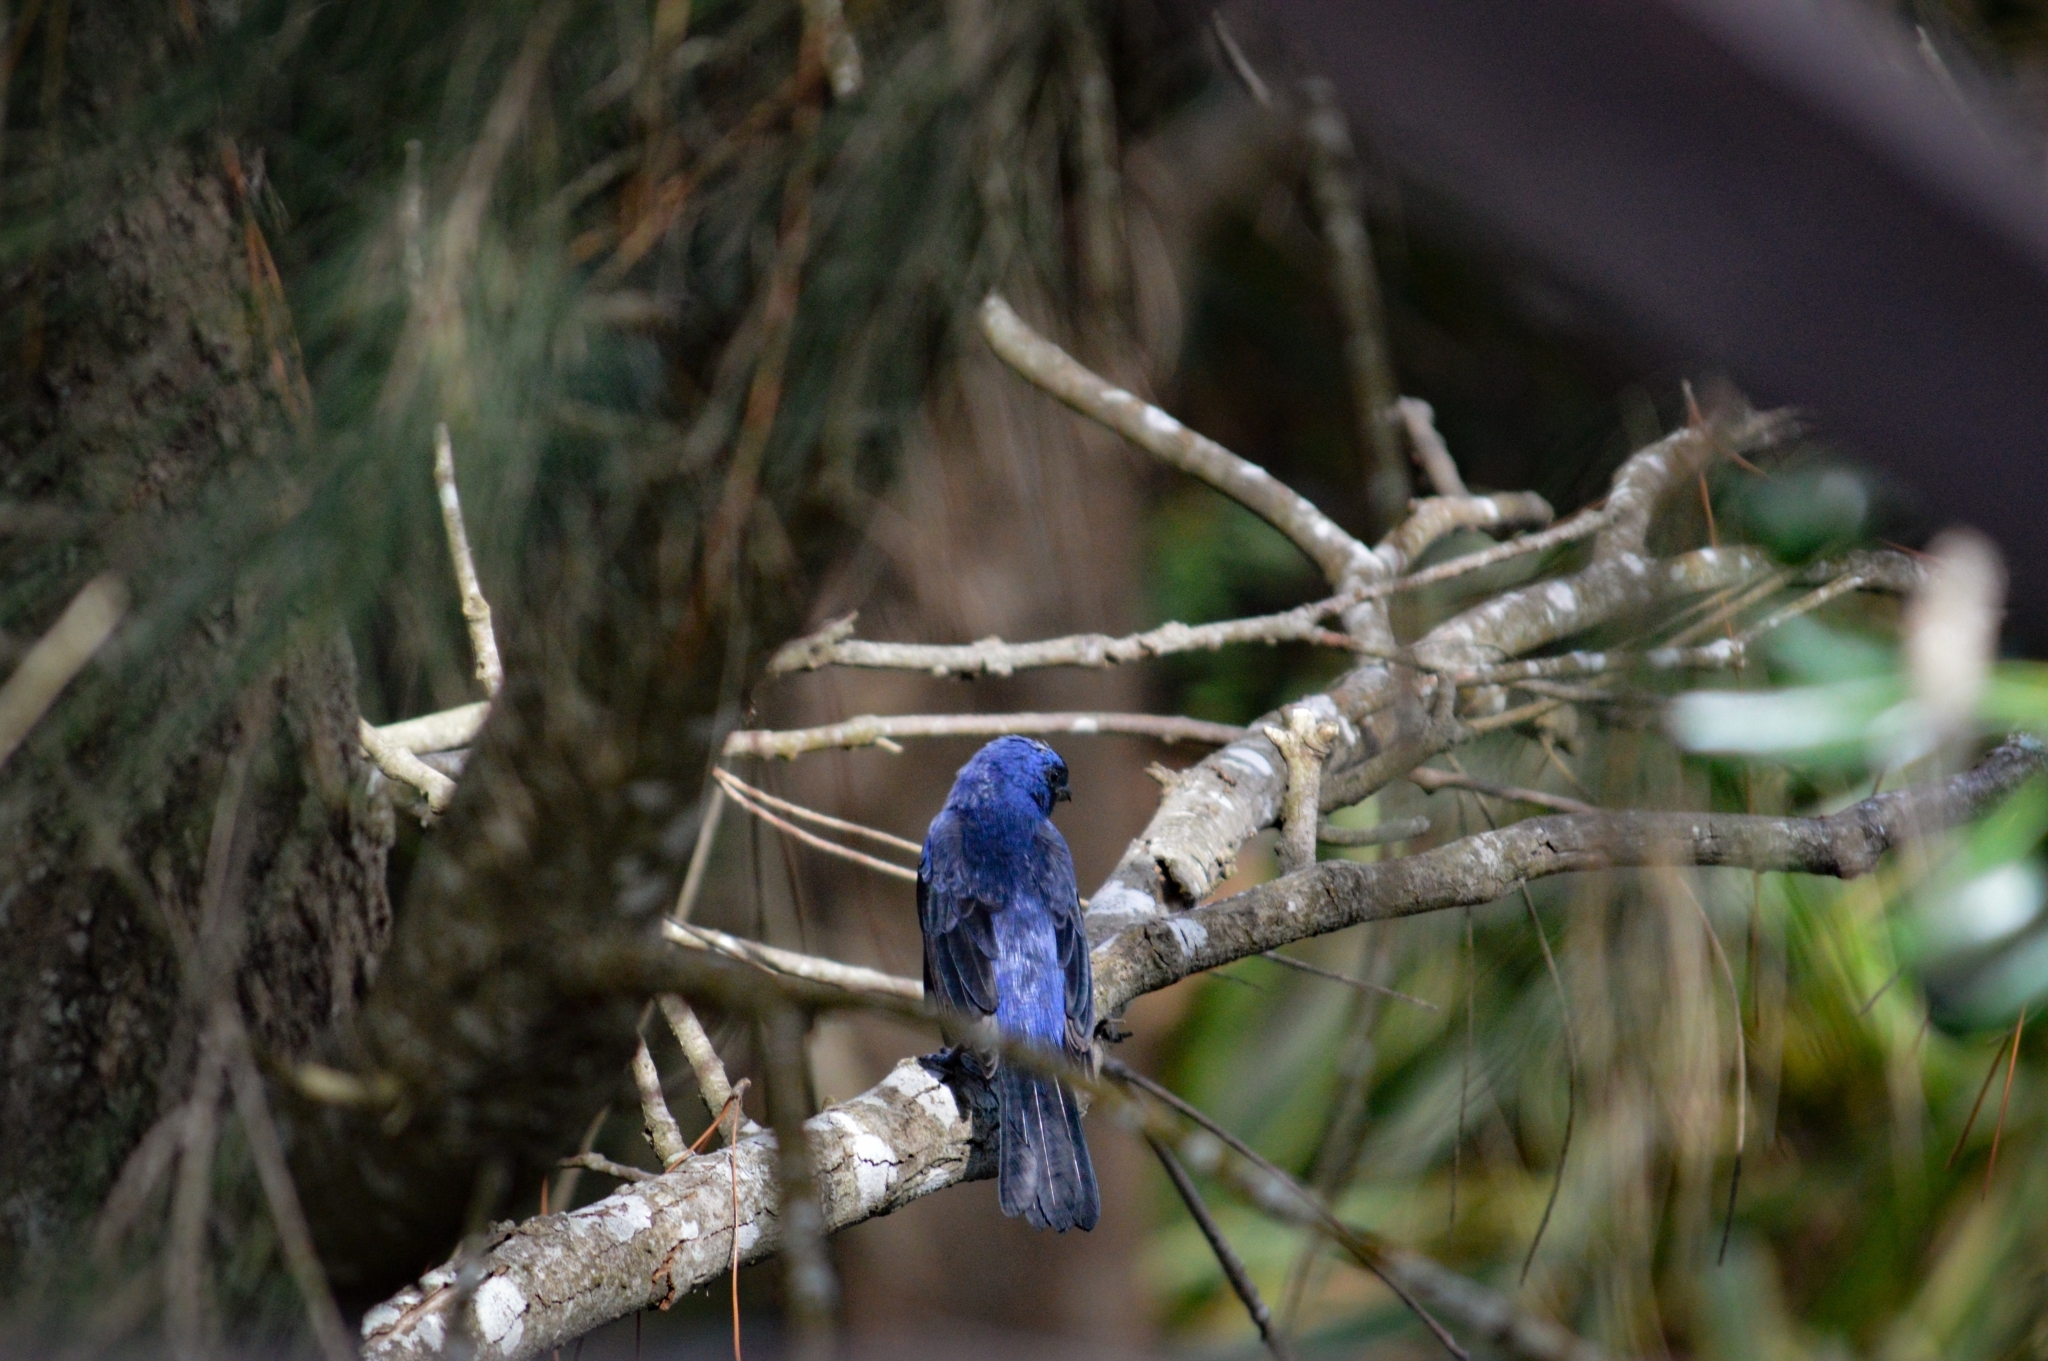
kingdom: Animalia
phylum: Chordata
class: Aves
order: Passeriformes
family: Thraupidae
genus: Stephanophorus
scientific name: Stephanophorus diadematus
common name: Diademed tanager
